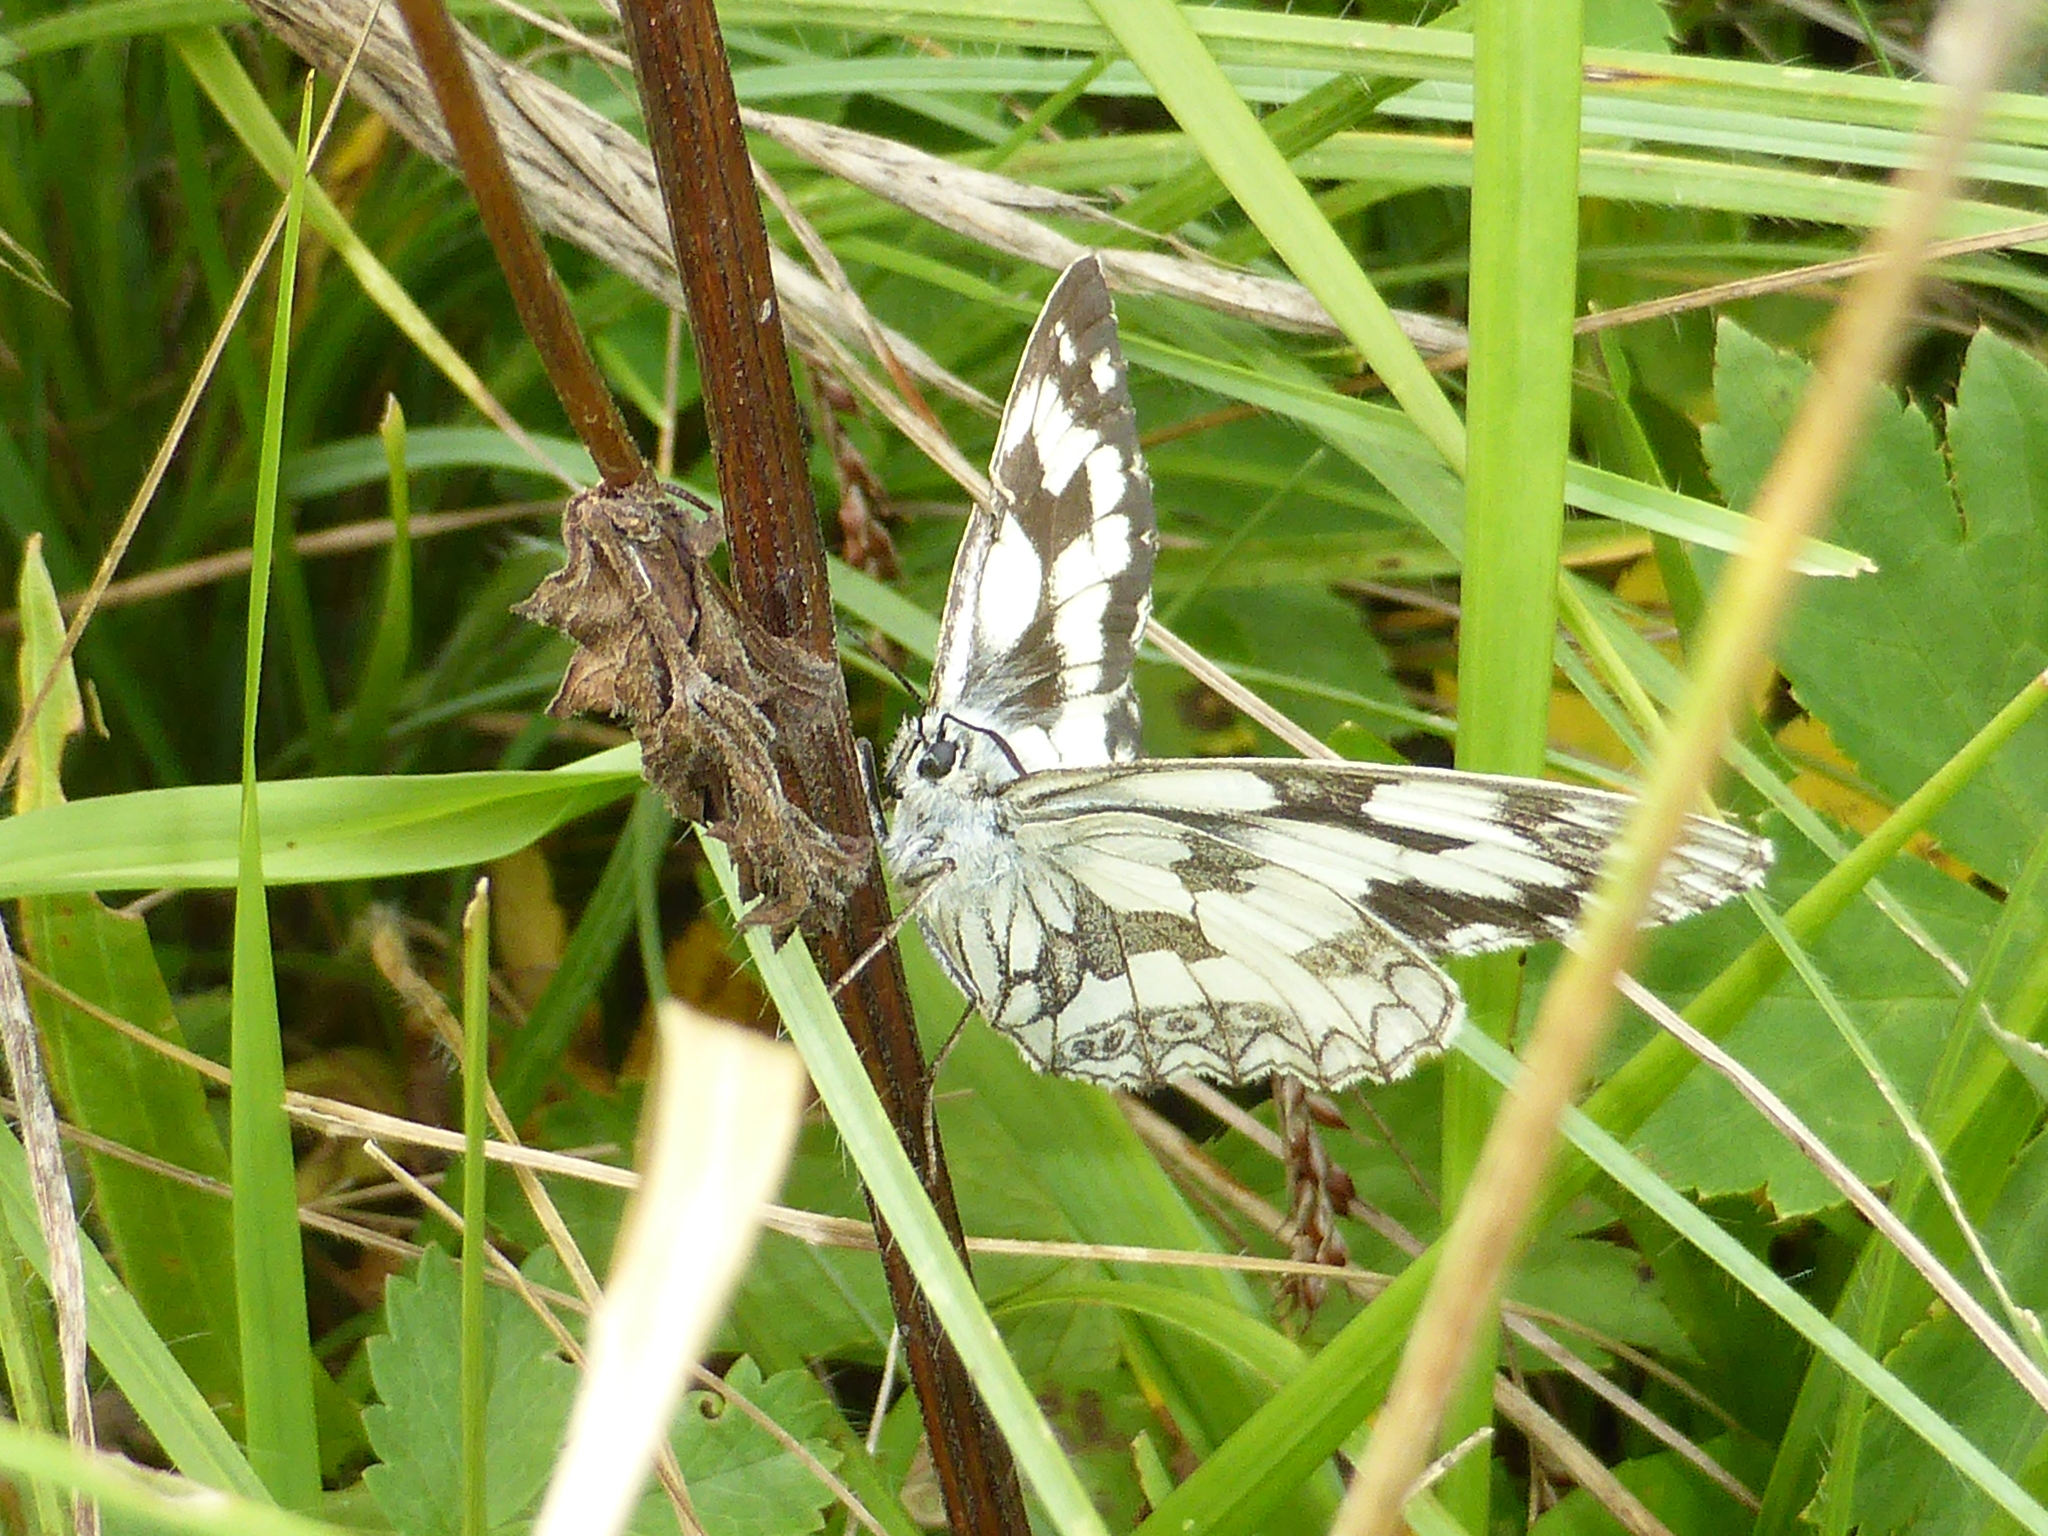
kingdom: Animalia
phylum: Arthropoda
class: Insecta
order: Lepidoptera
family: Nymphalidae
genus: Melanargia
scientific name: Melanargia galathea
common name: Marbled white
